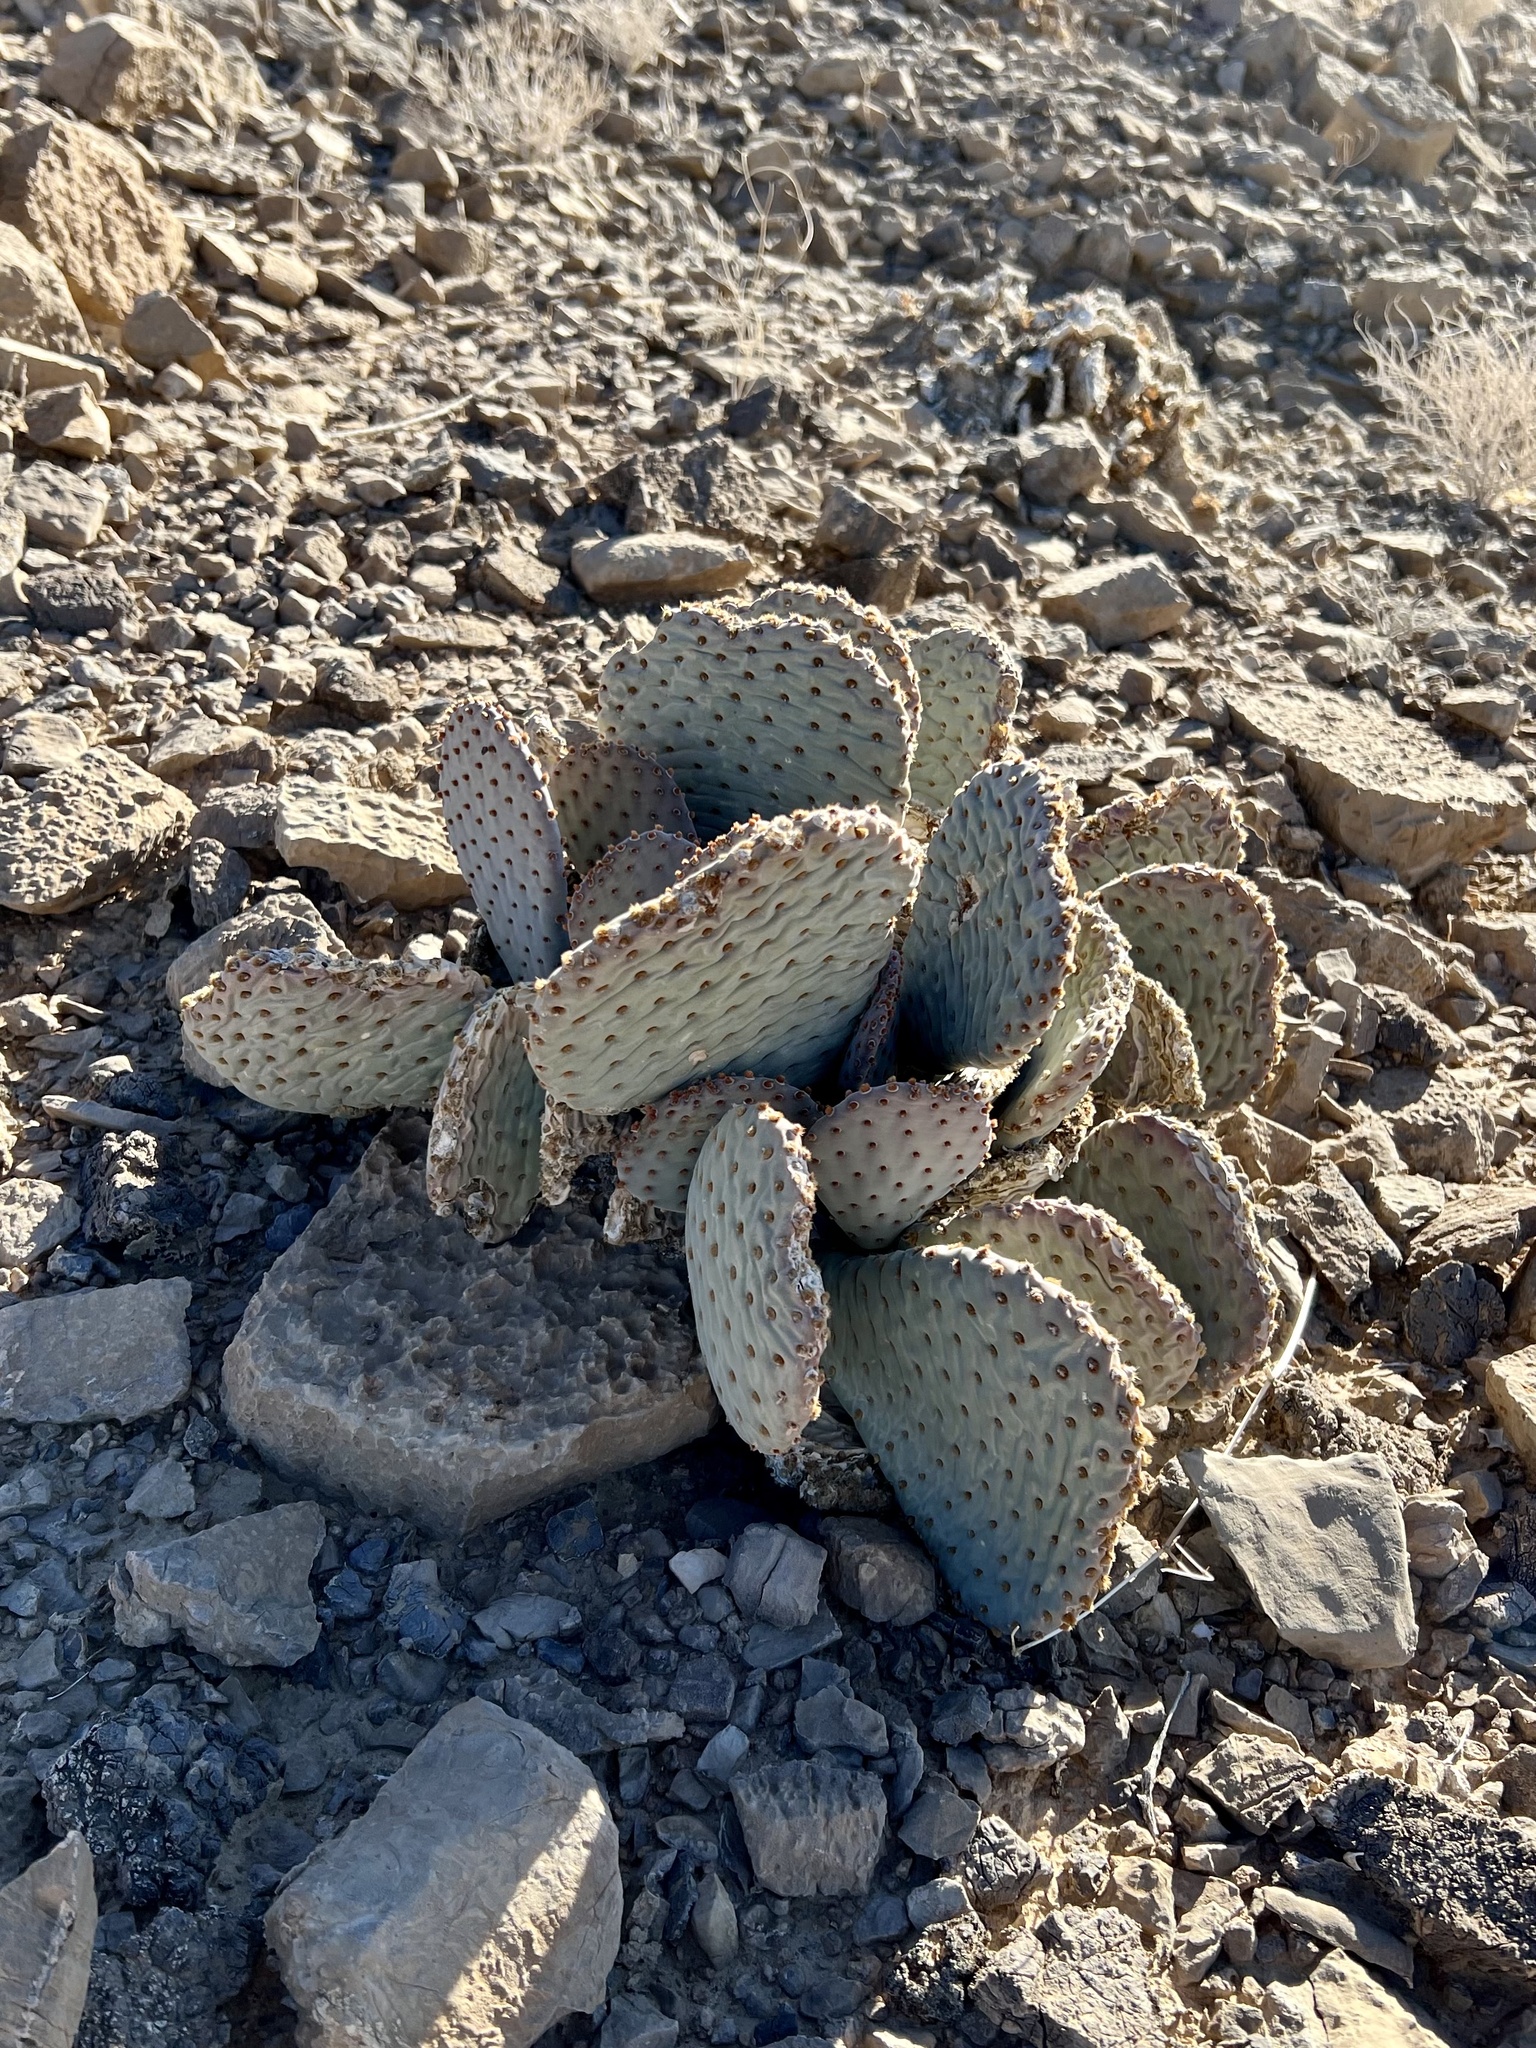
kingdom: Plantae
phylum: Tracheophyta
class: Magnoliopsida
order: Caryophyllales
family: Cactaceae
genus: Opuntia
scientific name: Opuntia basilaris
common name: Beavertail prickly-pear
